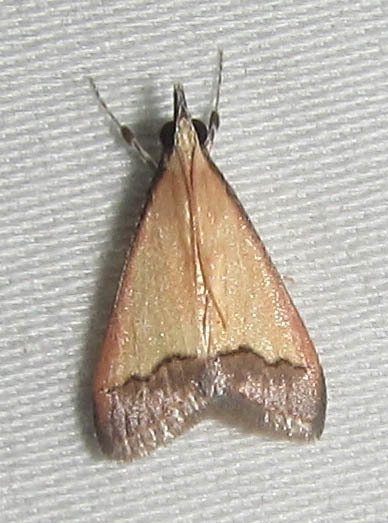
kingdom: Animalia
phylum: Arthropoda
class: Insecta
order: Lepidoptera
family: Crambidae
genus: Autocharis
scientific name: Autocharis fessalis
